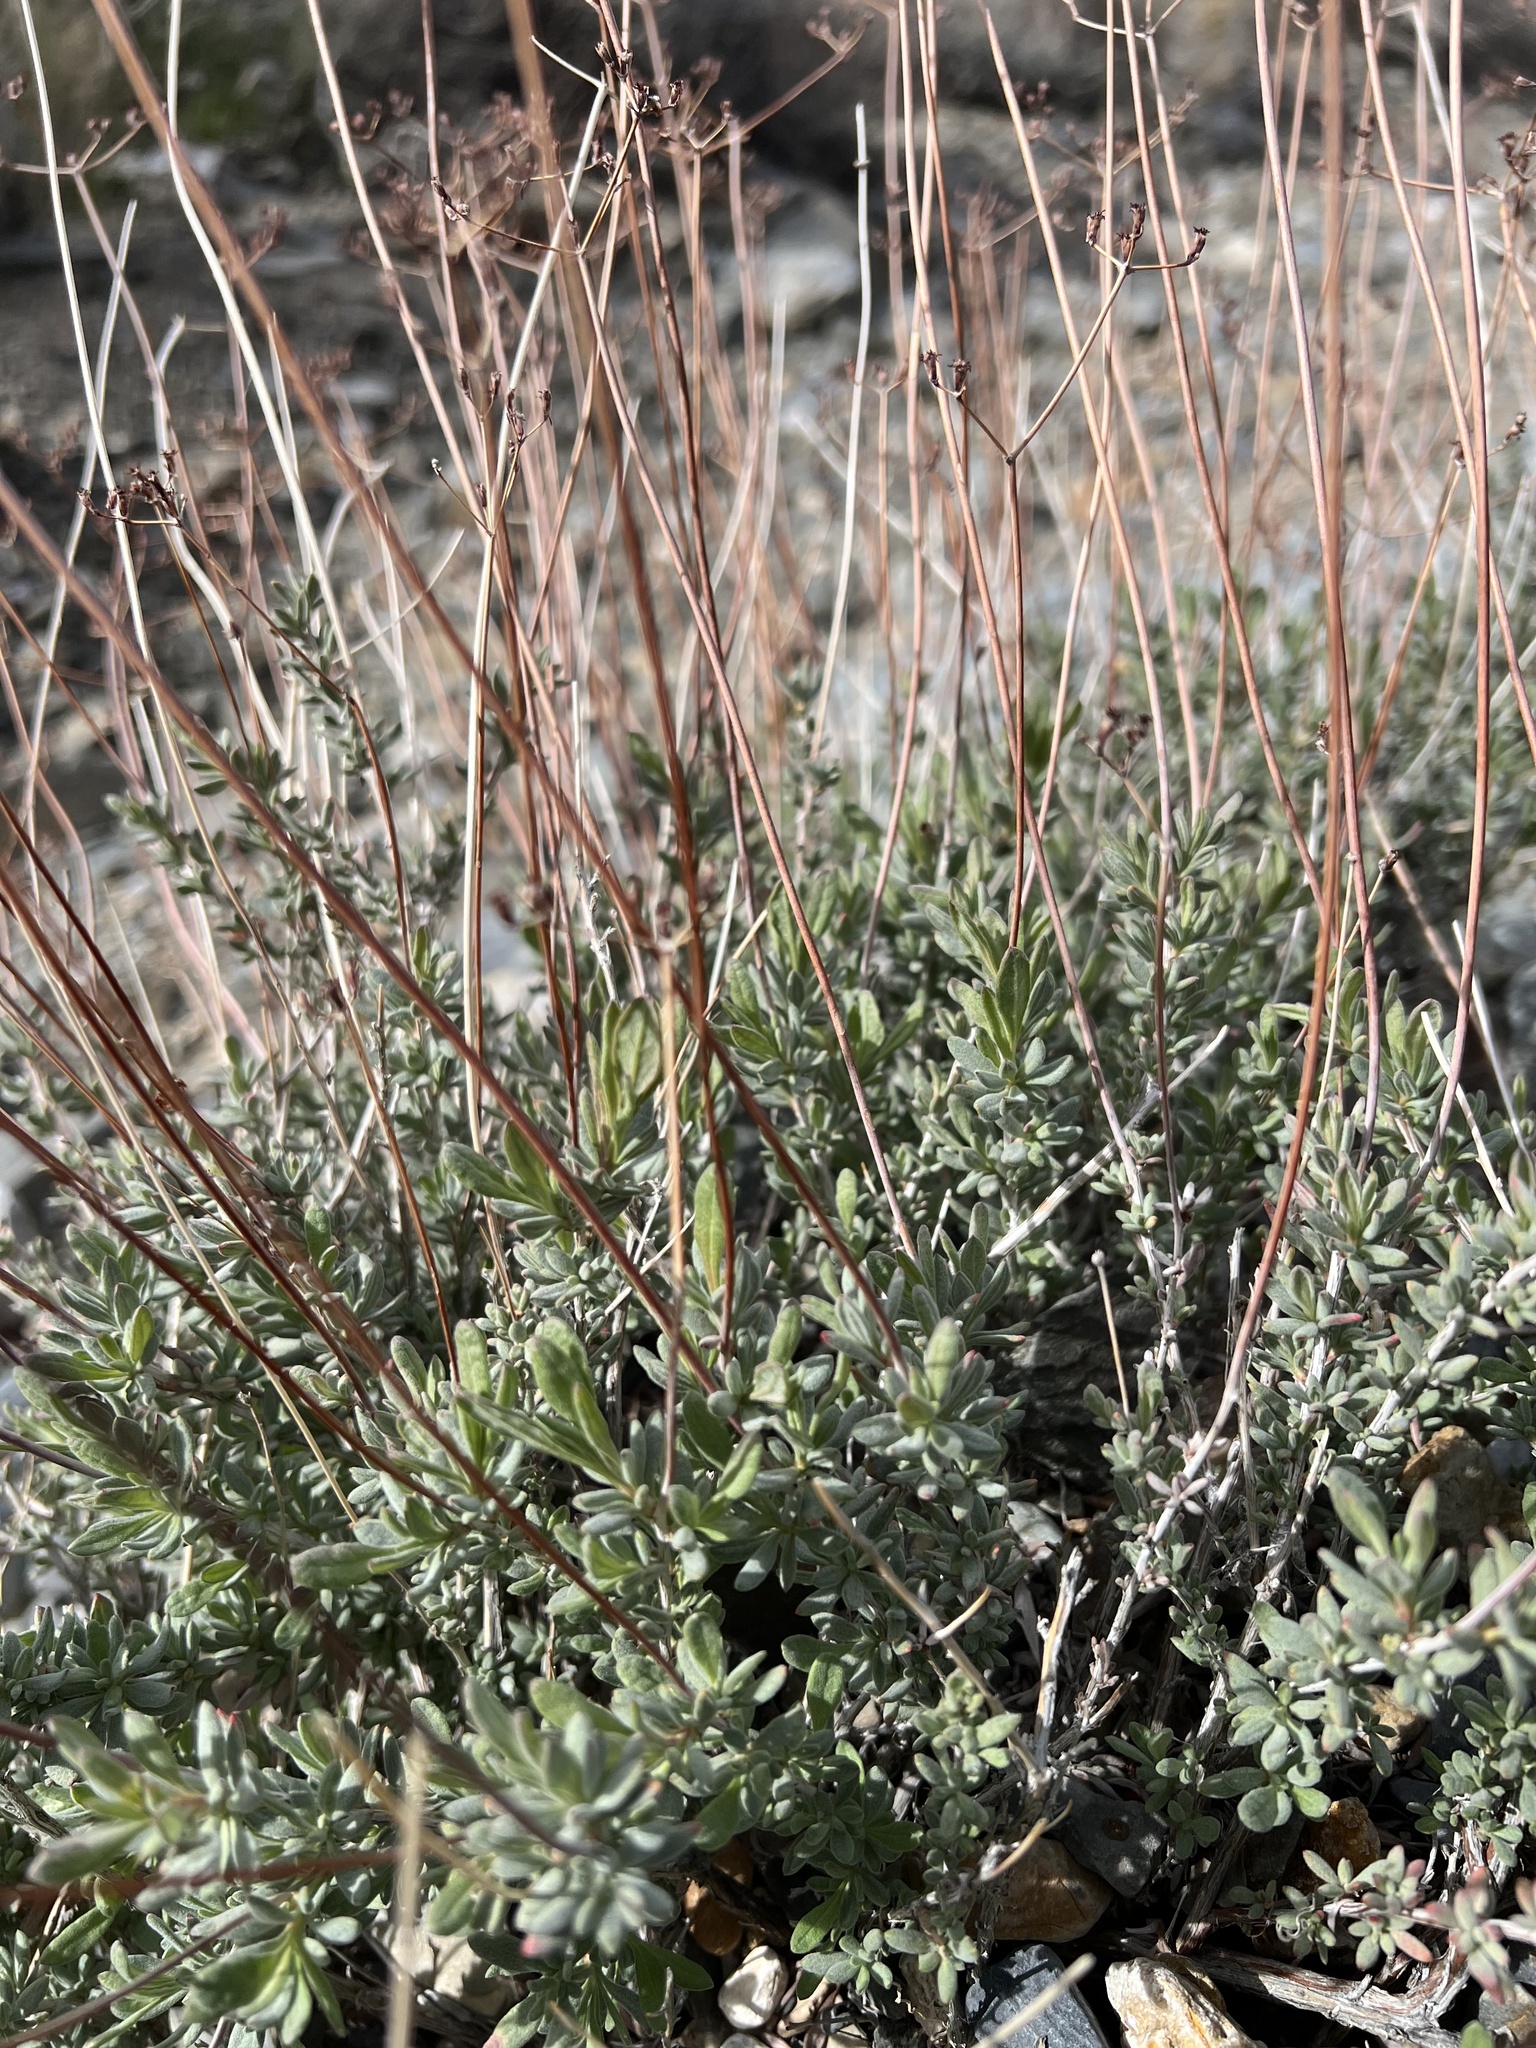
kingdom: Plantae
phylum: Tracheophyta
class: Magnoliopsida
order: Caryophyllales
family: Polygonaceae
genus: Eriogonum
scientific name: Eriogonum fasciculatum
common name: California wild buckwheat
